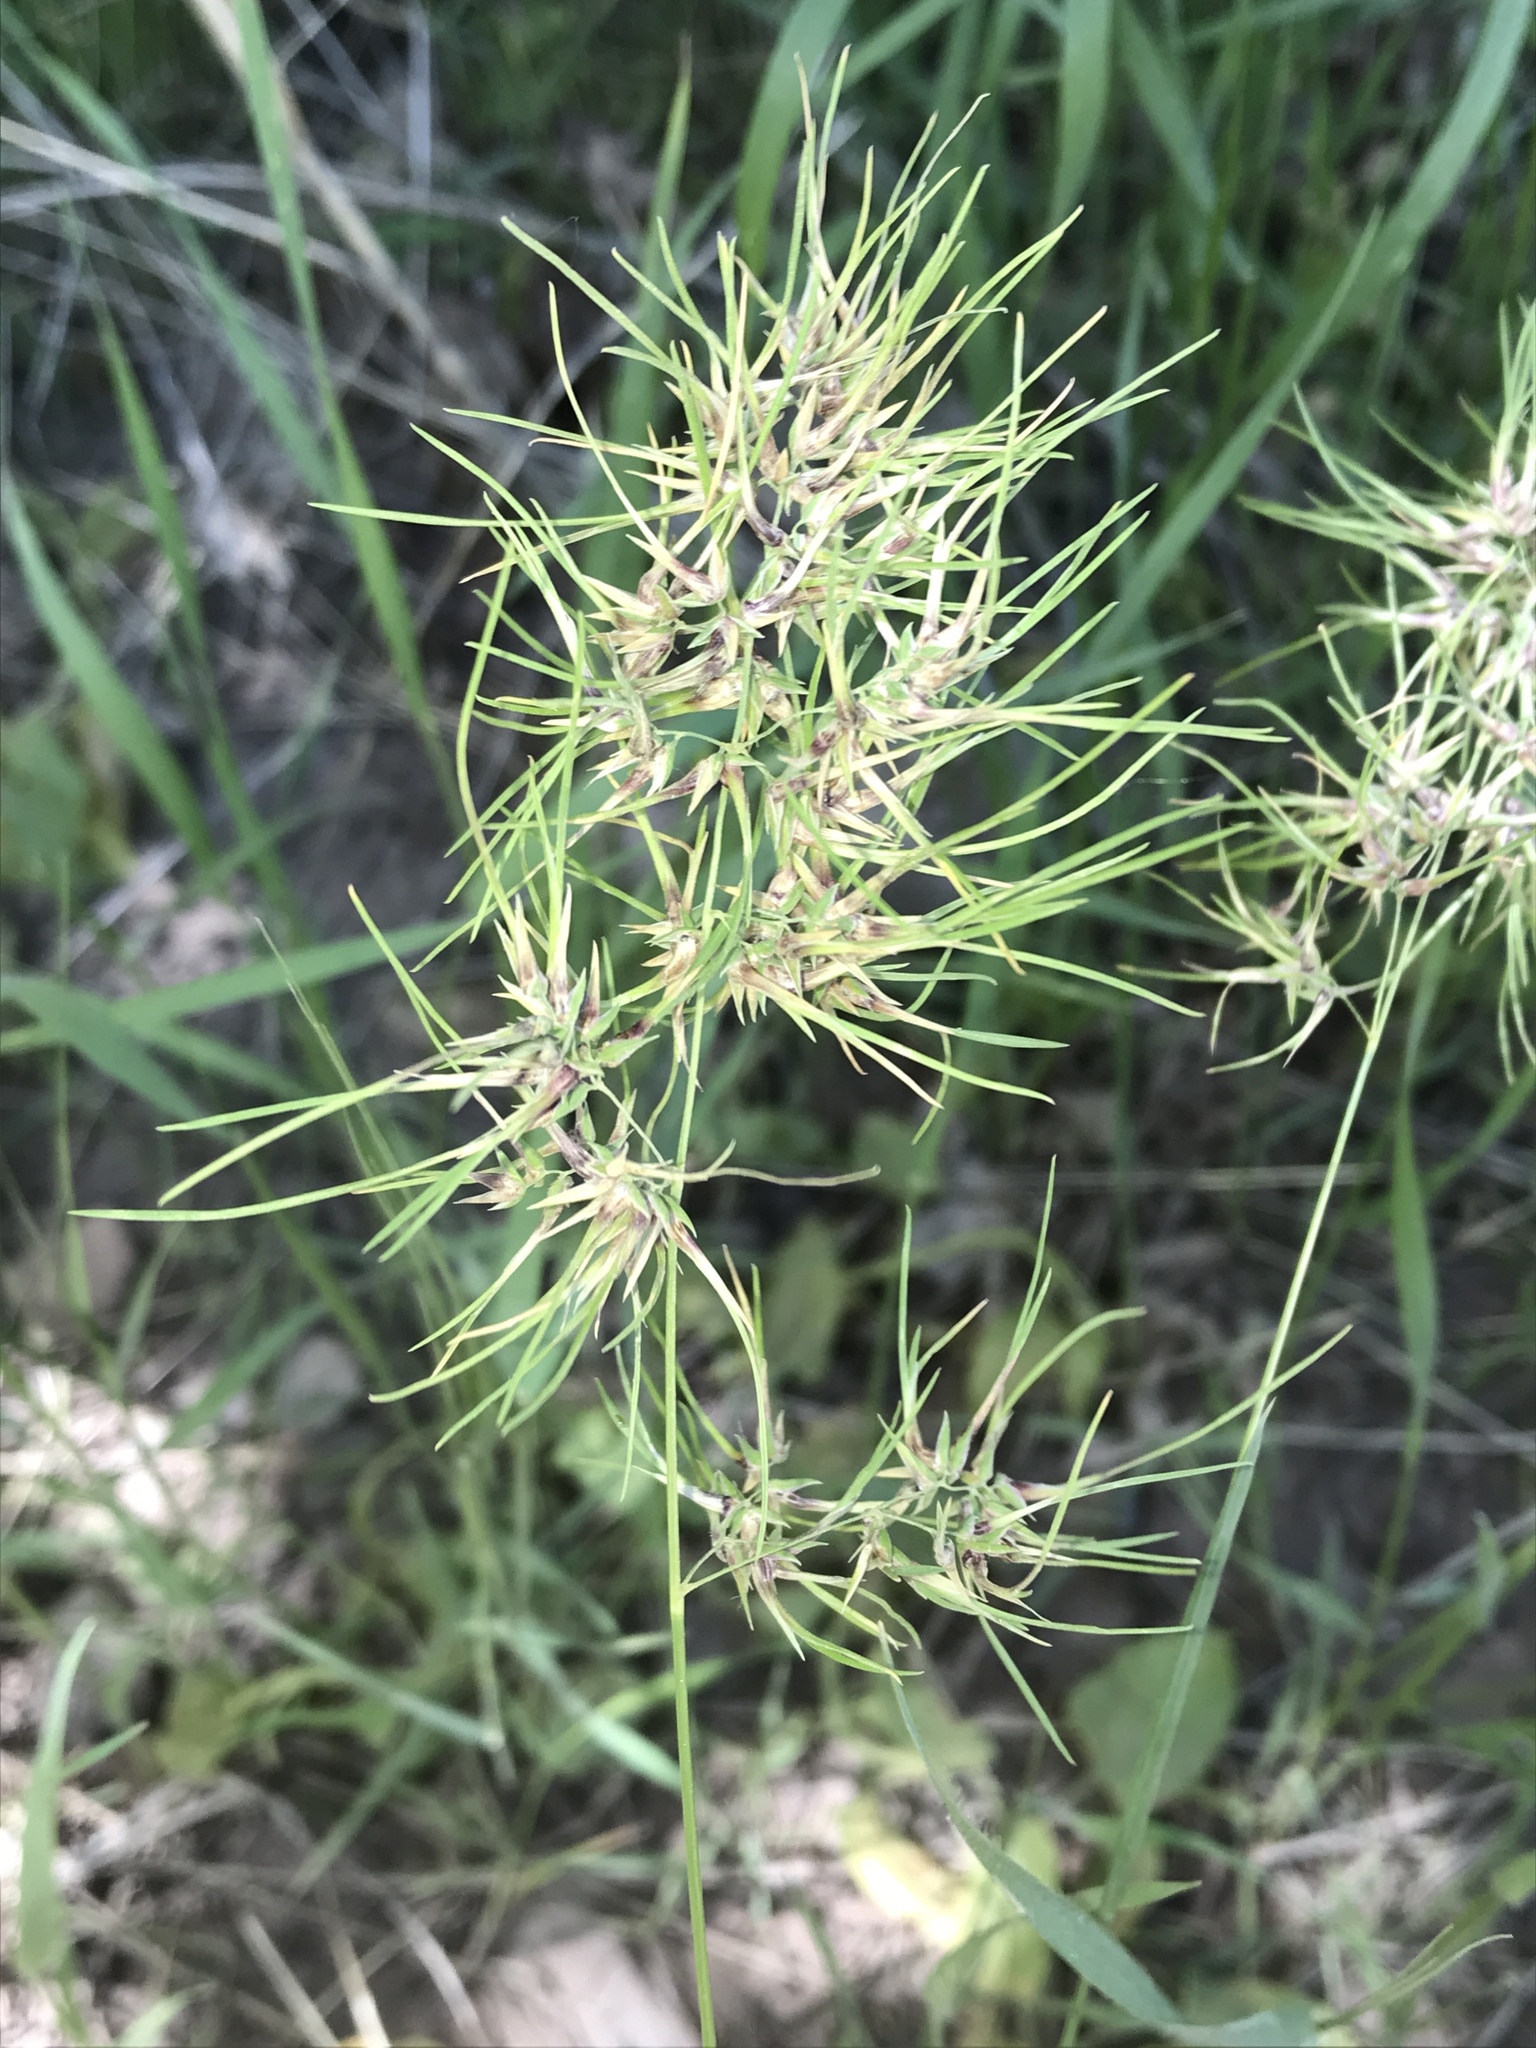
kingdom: Plantae
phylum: Tracheophyta
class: Liliopsida
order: Poales
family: Poaceae
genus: Poa
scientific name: Poa bulbosa
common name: Bulbous bluegrass
